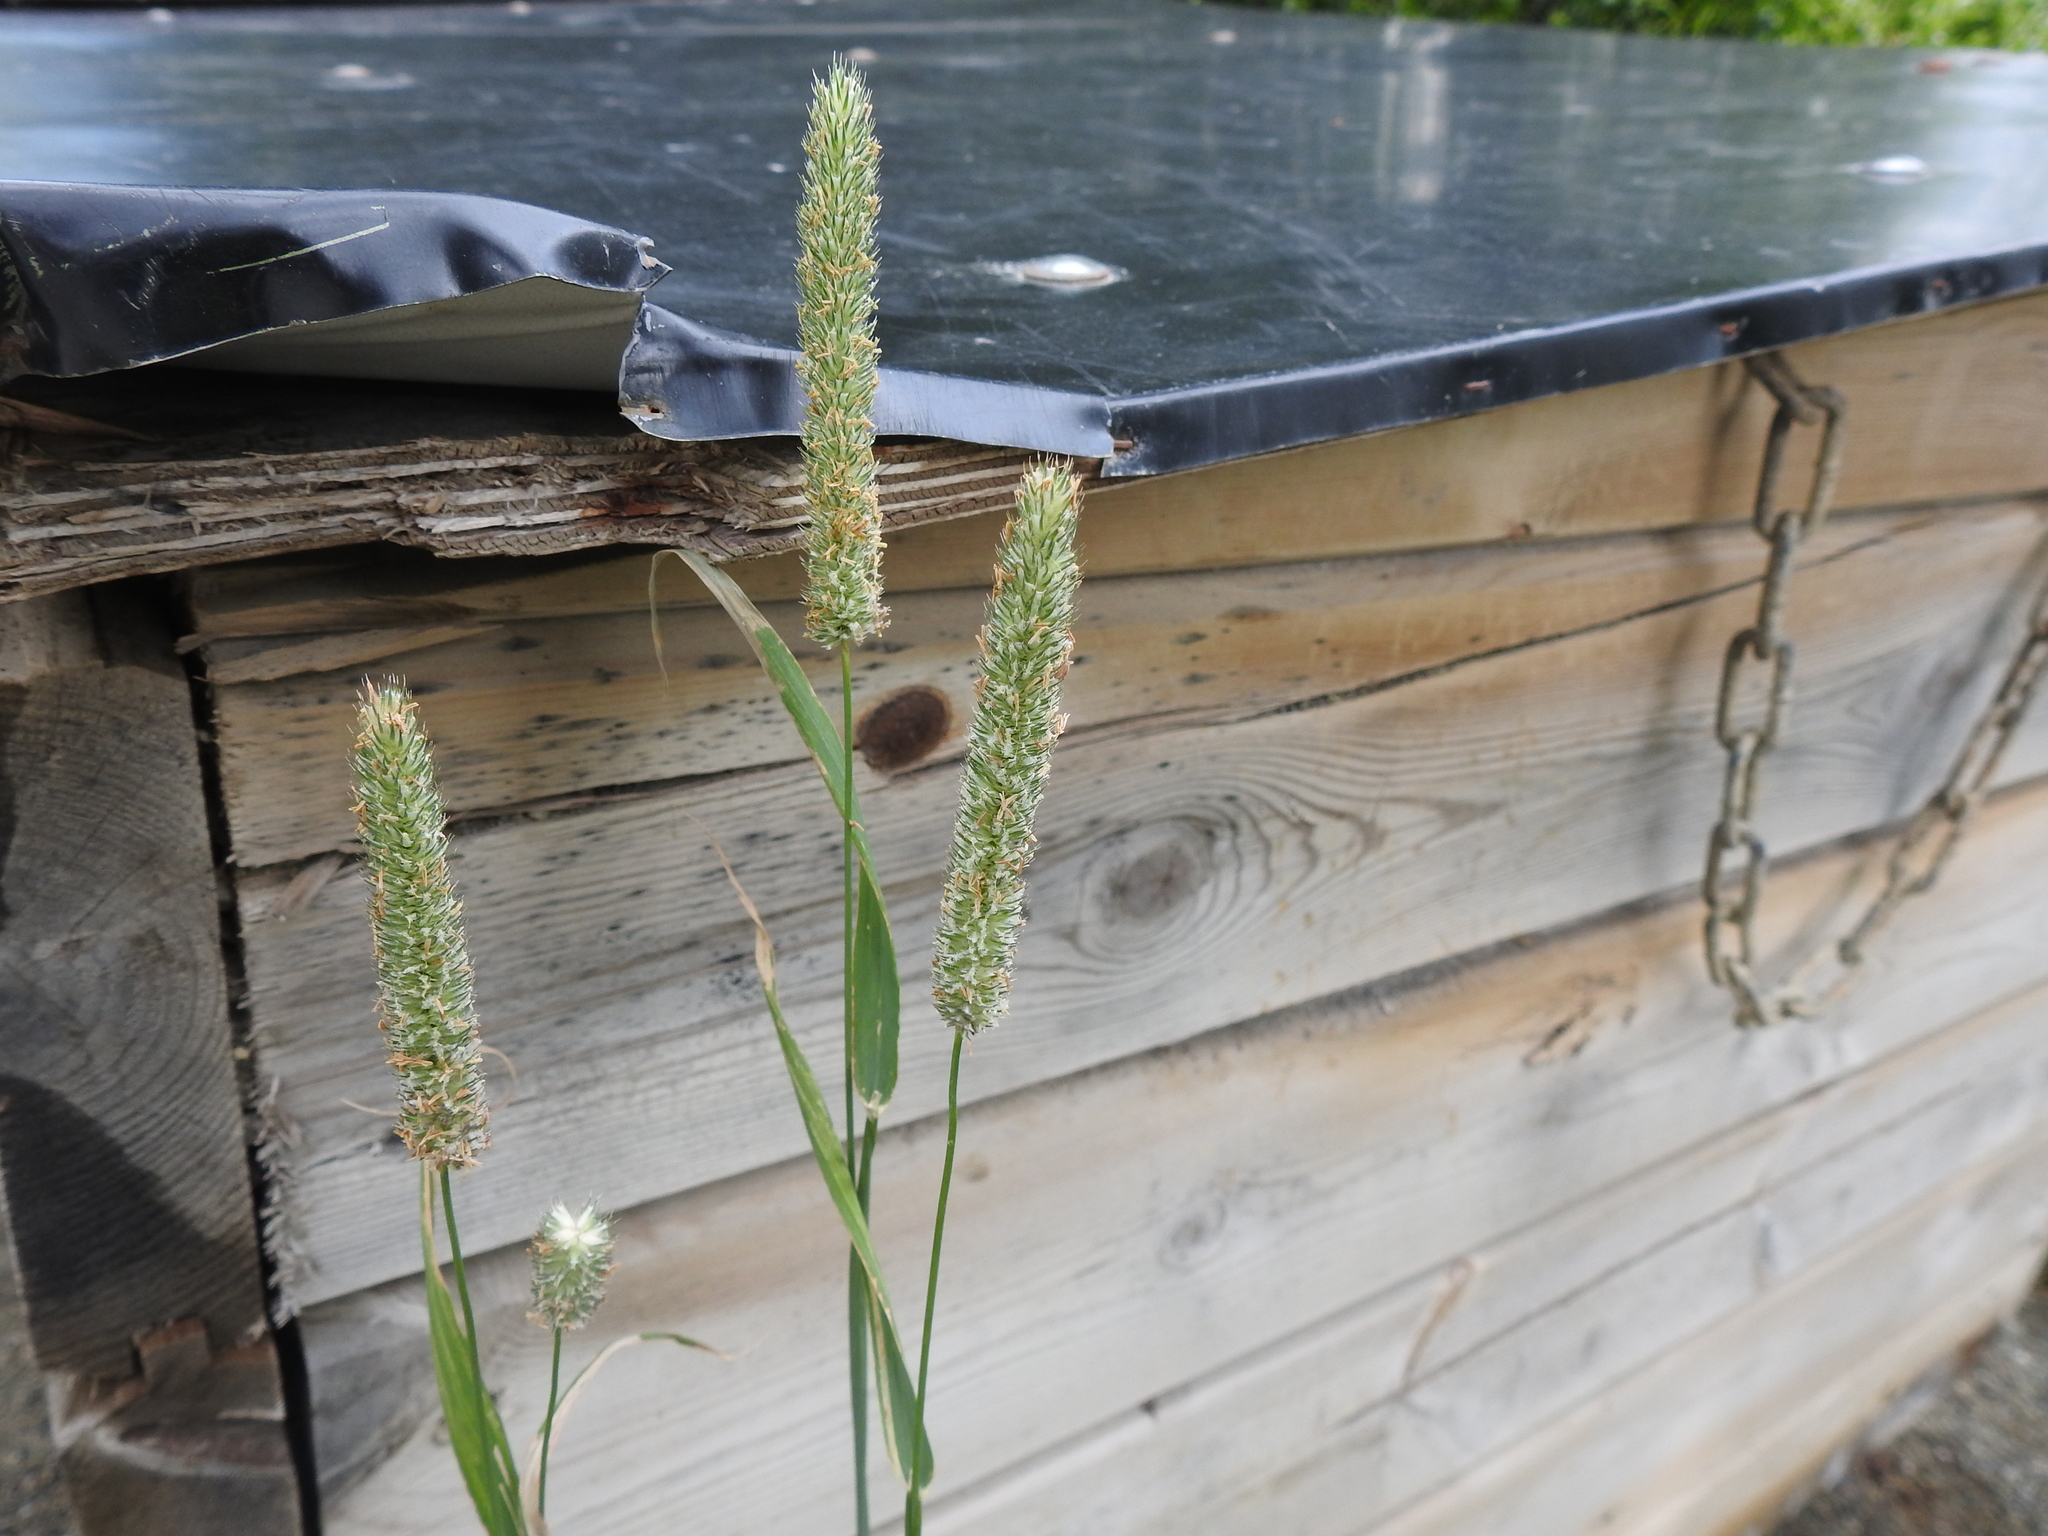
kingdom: Plantae
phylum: Tracheophyta
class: Liliopsida
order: Poales
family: Poaceae
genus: Phleum
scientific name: Phleum pratense
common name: Timothy grass
